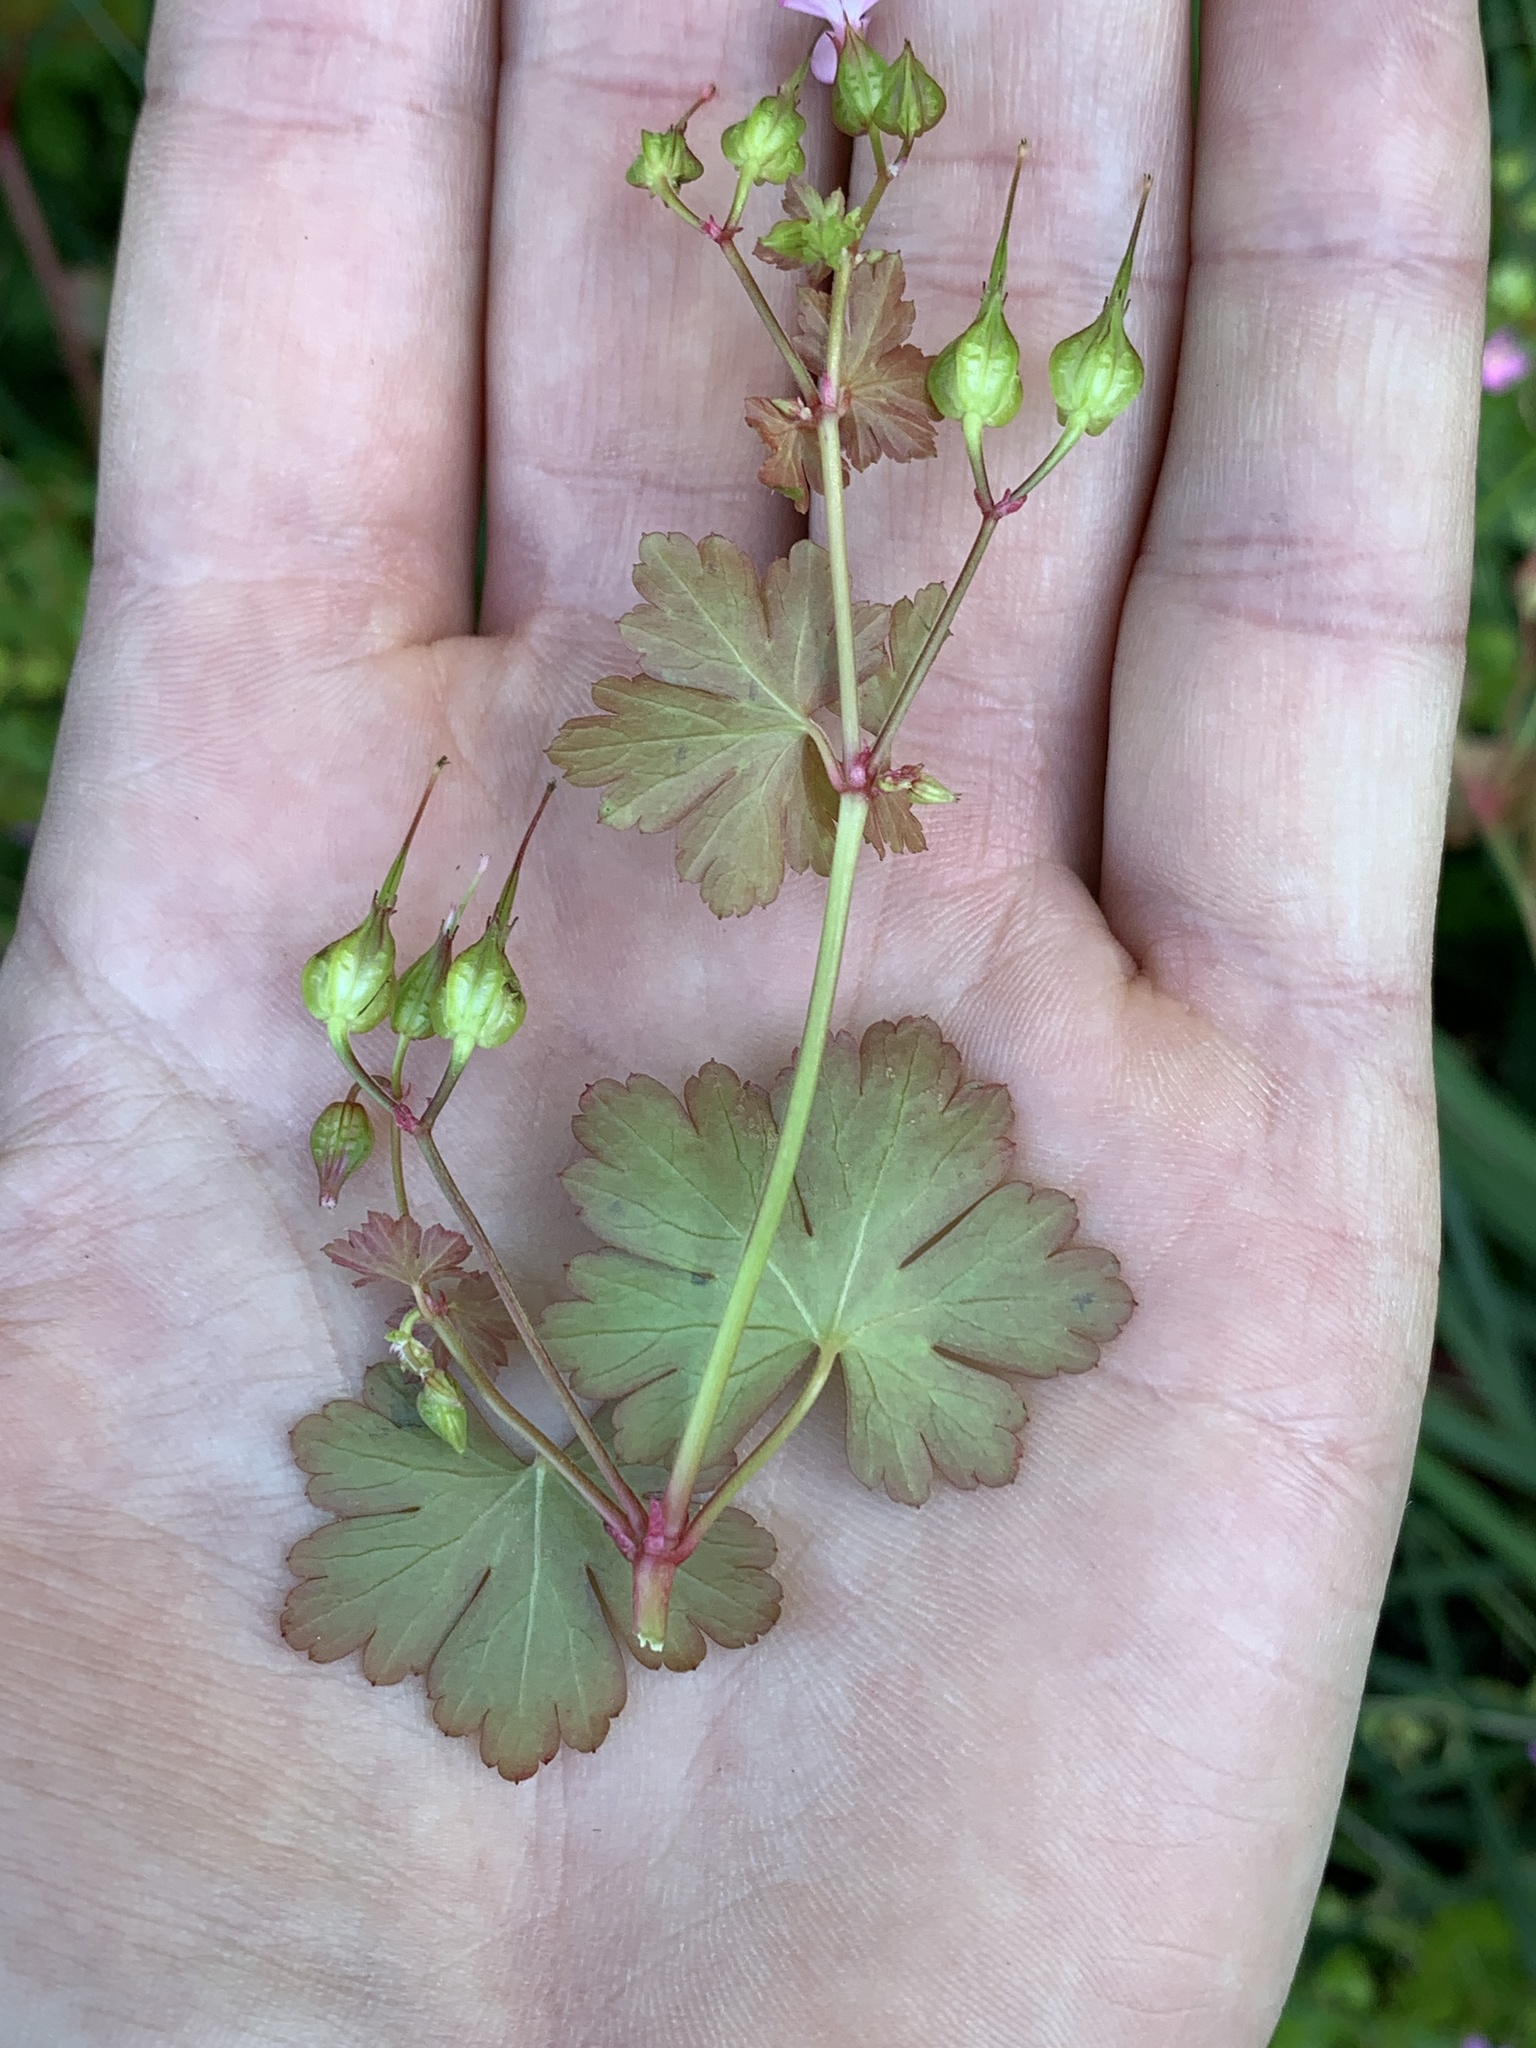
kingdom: Plantae
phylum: Tracheophyta
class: Magnoliopsida
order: Geraniales
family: Geraniaceae
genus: Geranium
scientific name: Geranium lucidum
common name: Shining crane's-bill
